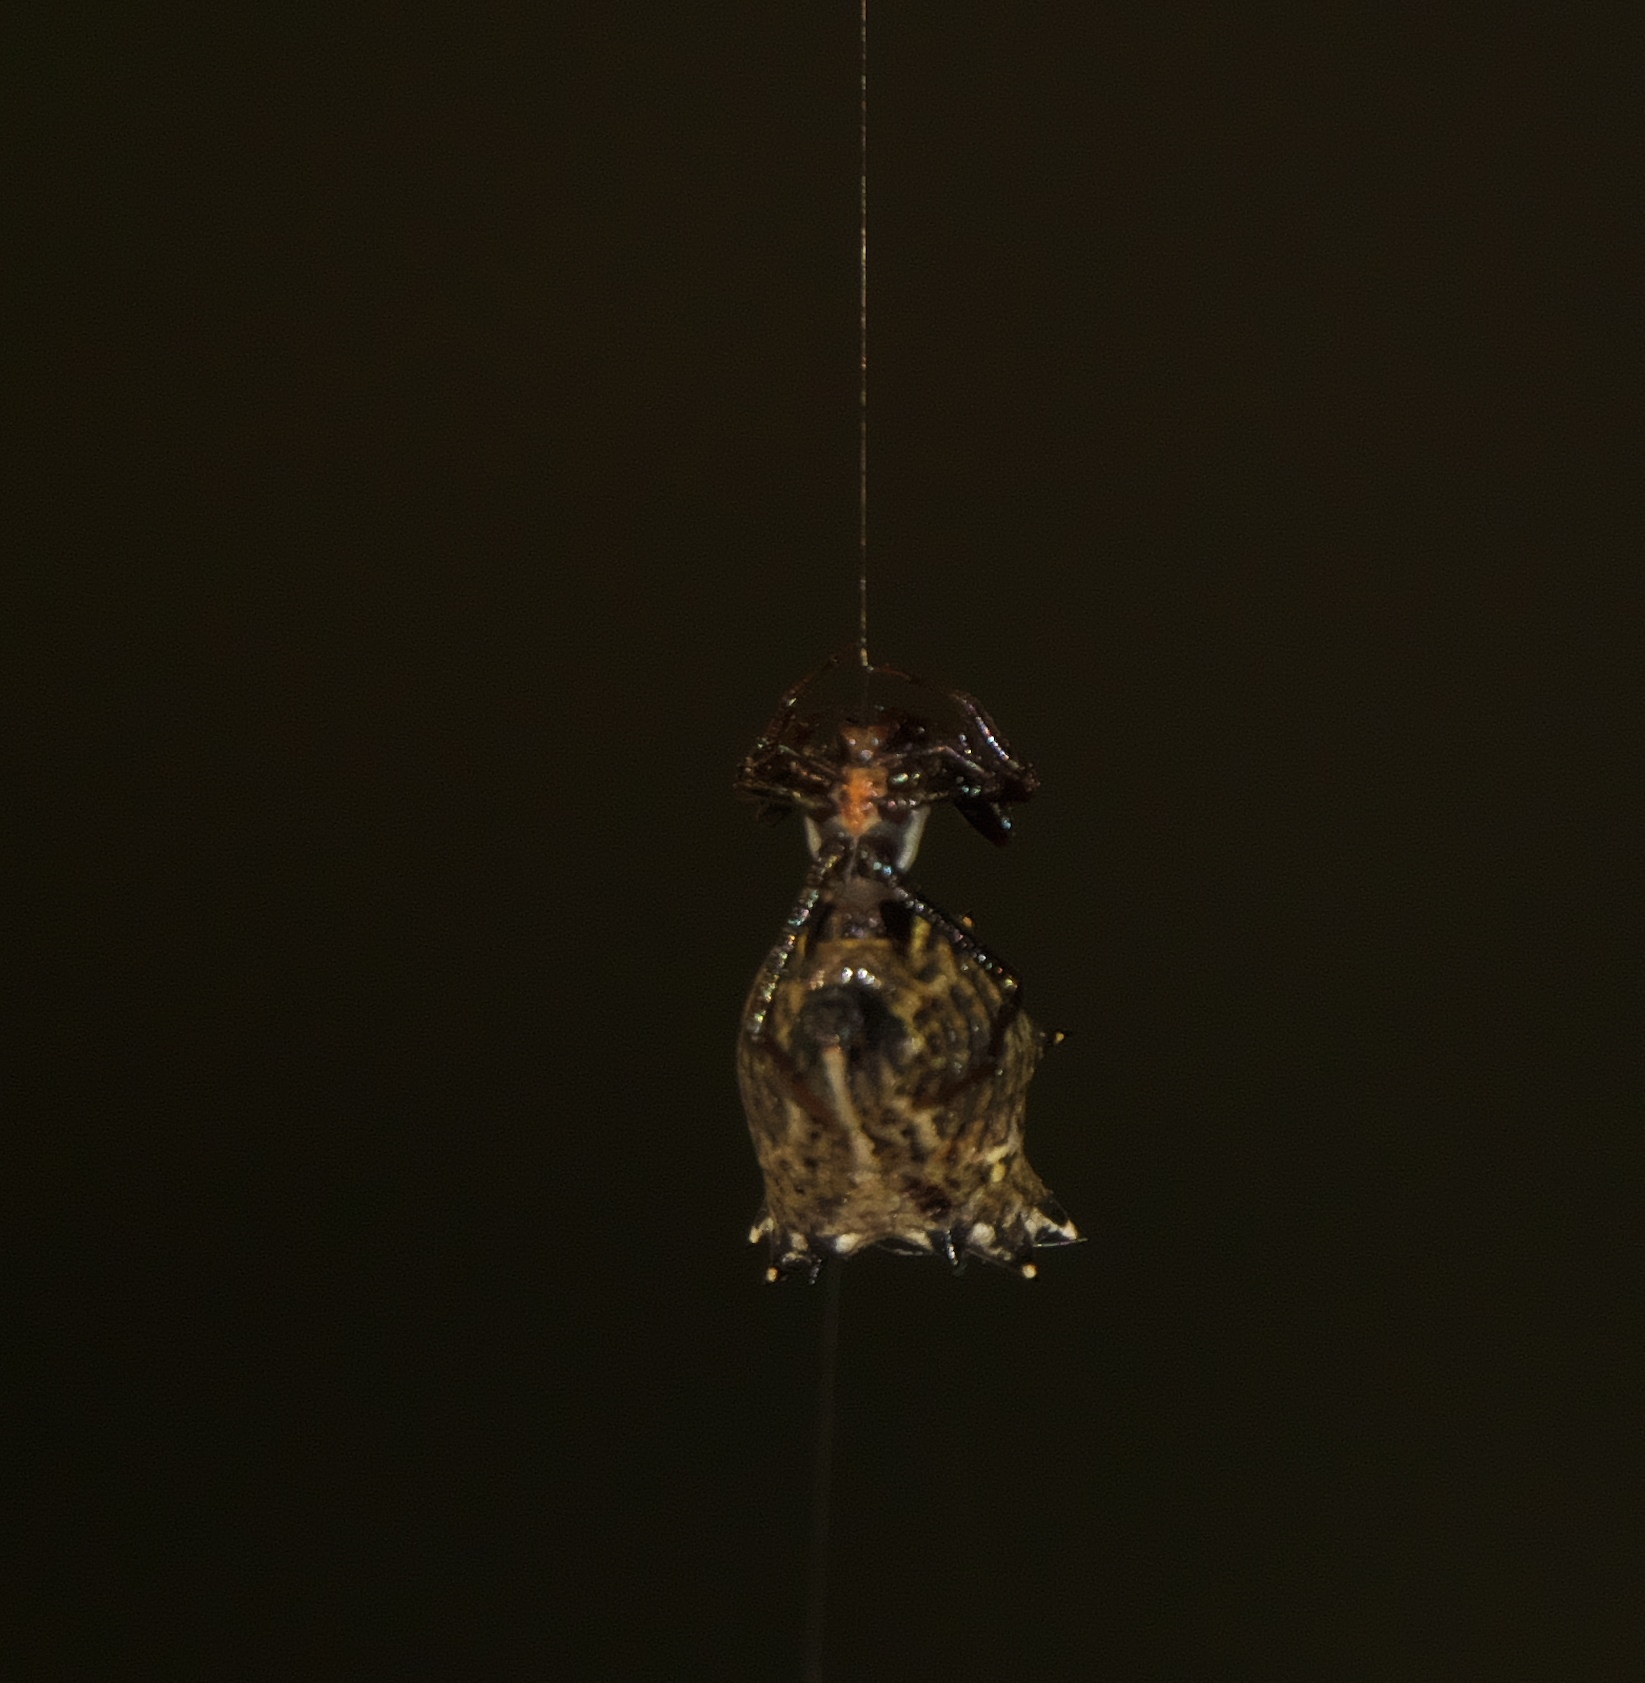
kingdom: Animalia
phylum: Arthropoda
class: Arachnida
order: Araneae
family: Araneidae
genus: Micrathena
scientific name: Micrathena gracilis
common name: Orb weavers
